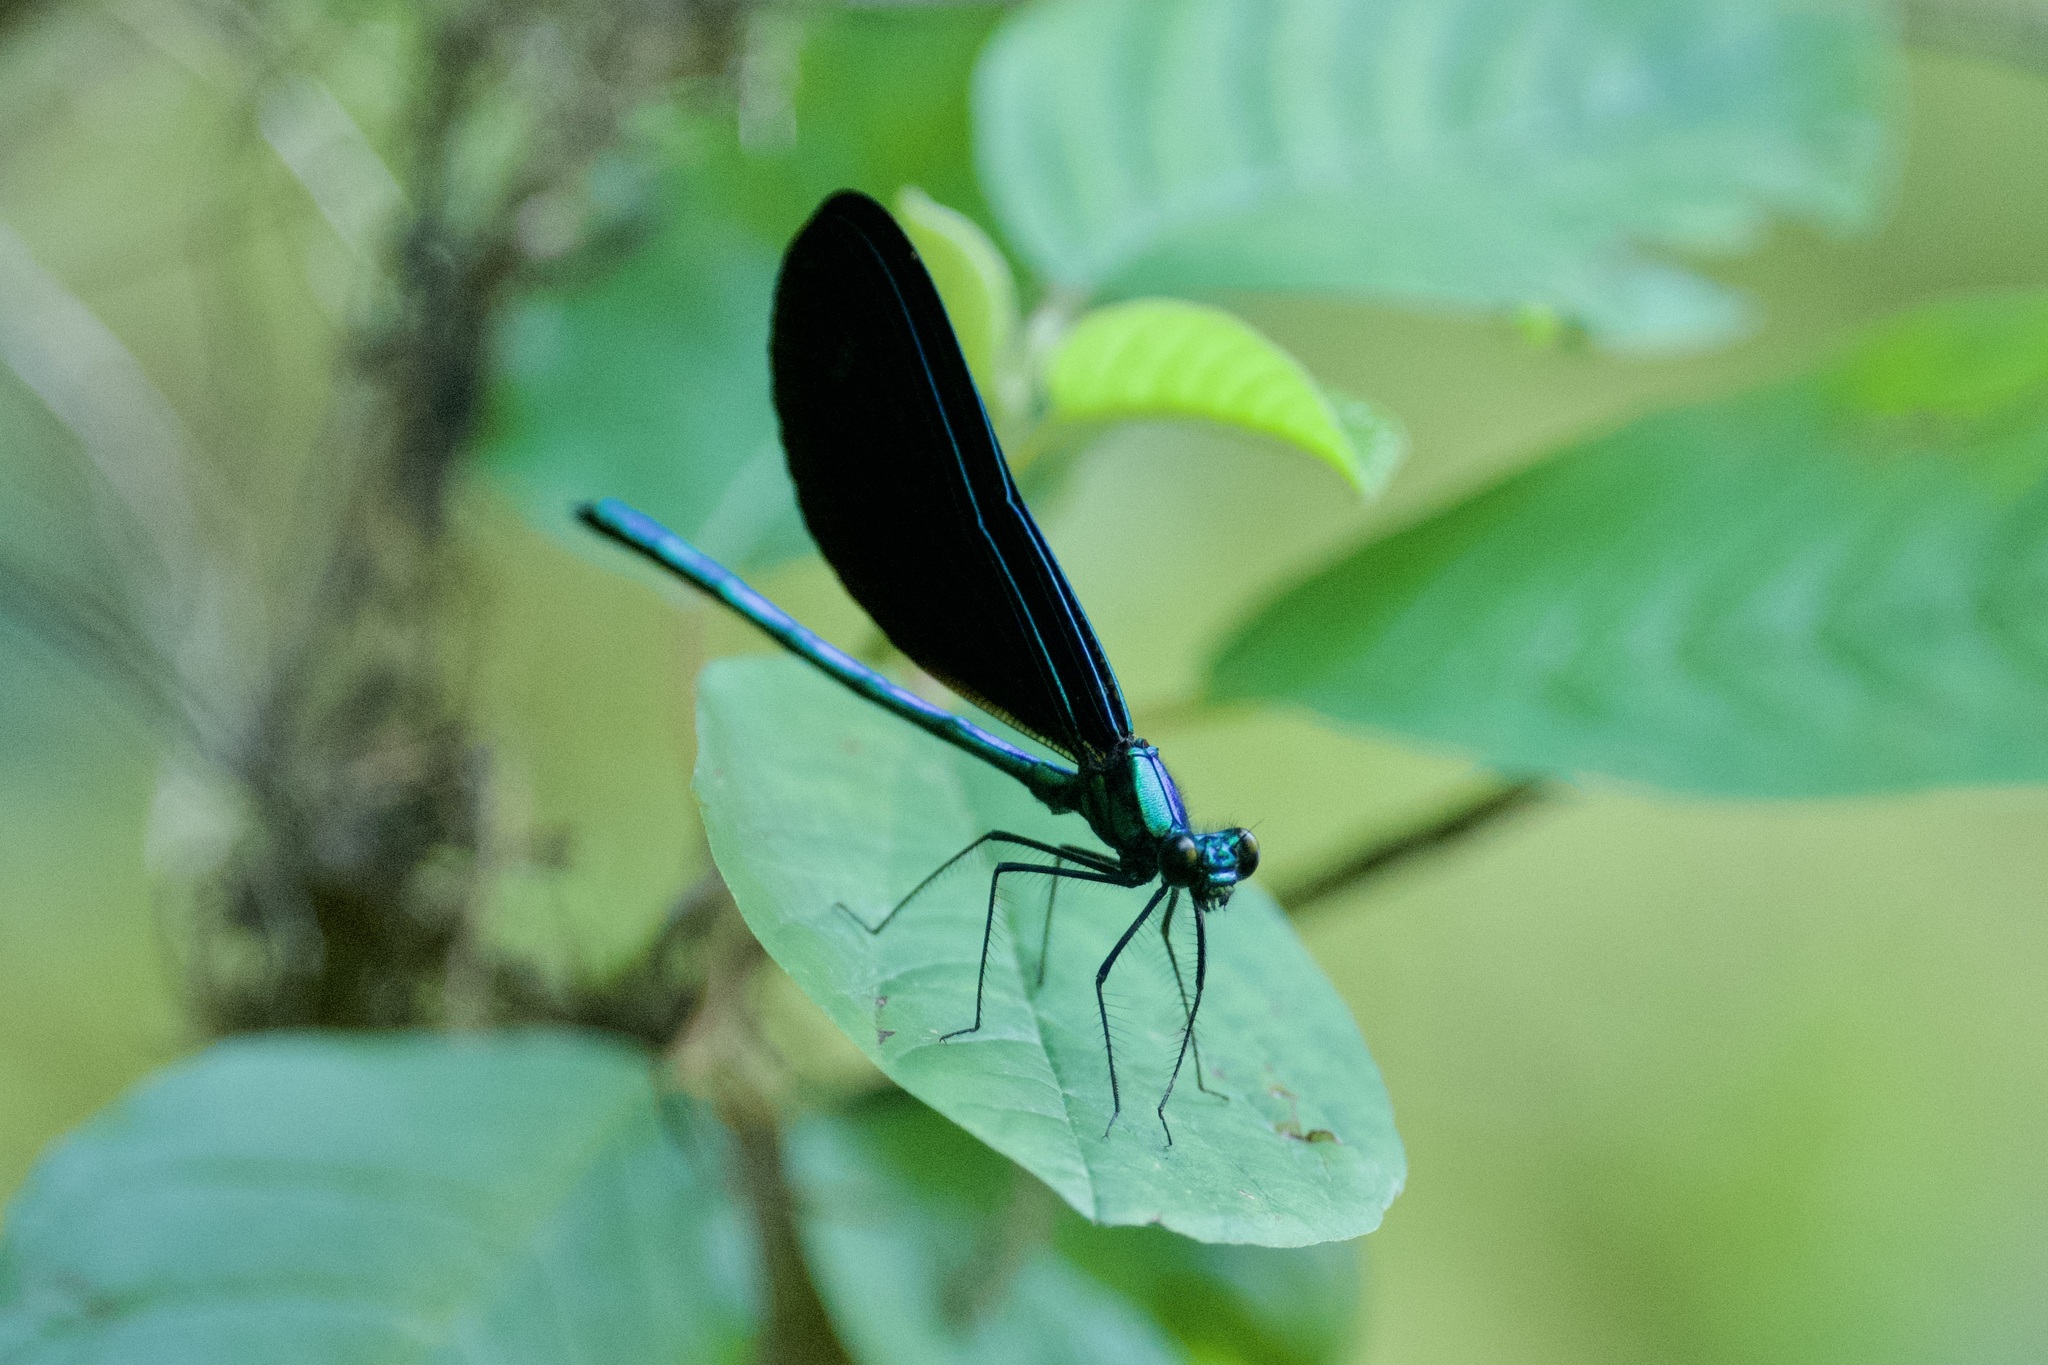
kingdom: Animalia
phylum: Arthropoda
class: Insecta
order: Odonata
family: Calopterygidae
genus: Calopteryx
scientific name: Calopteryx maculata
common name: Ebony jewelwing
